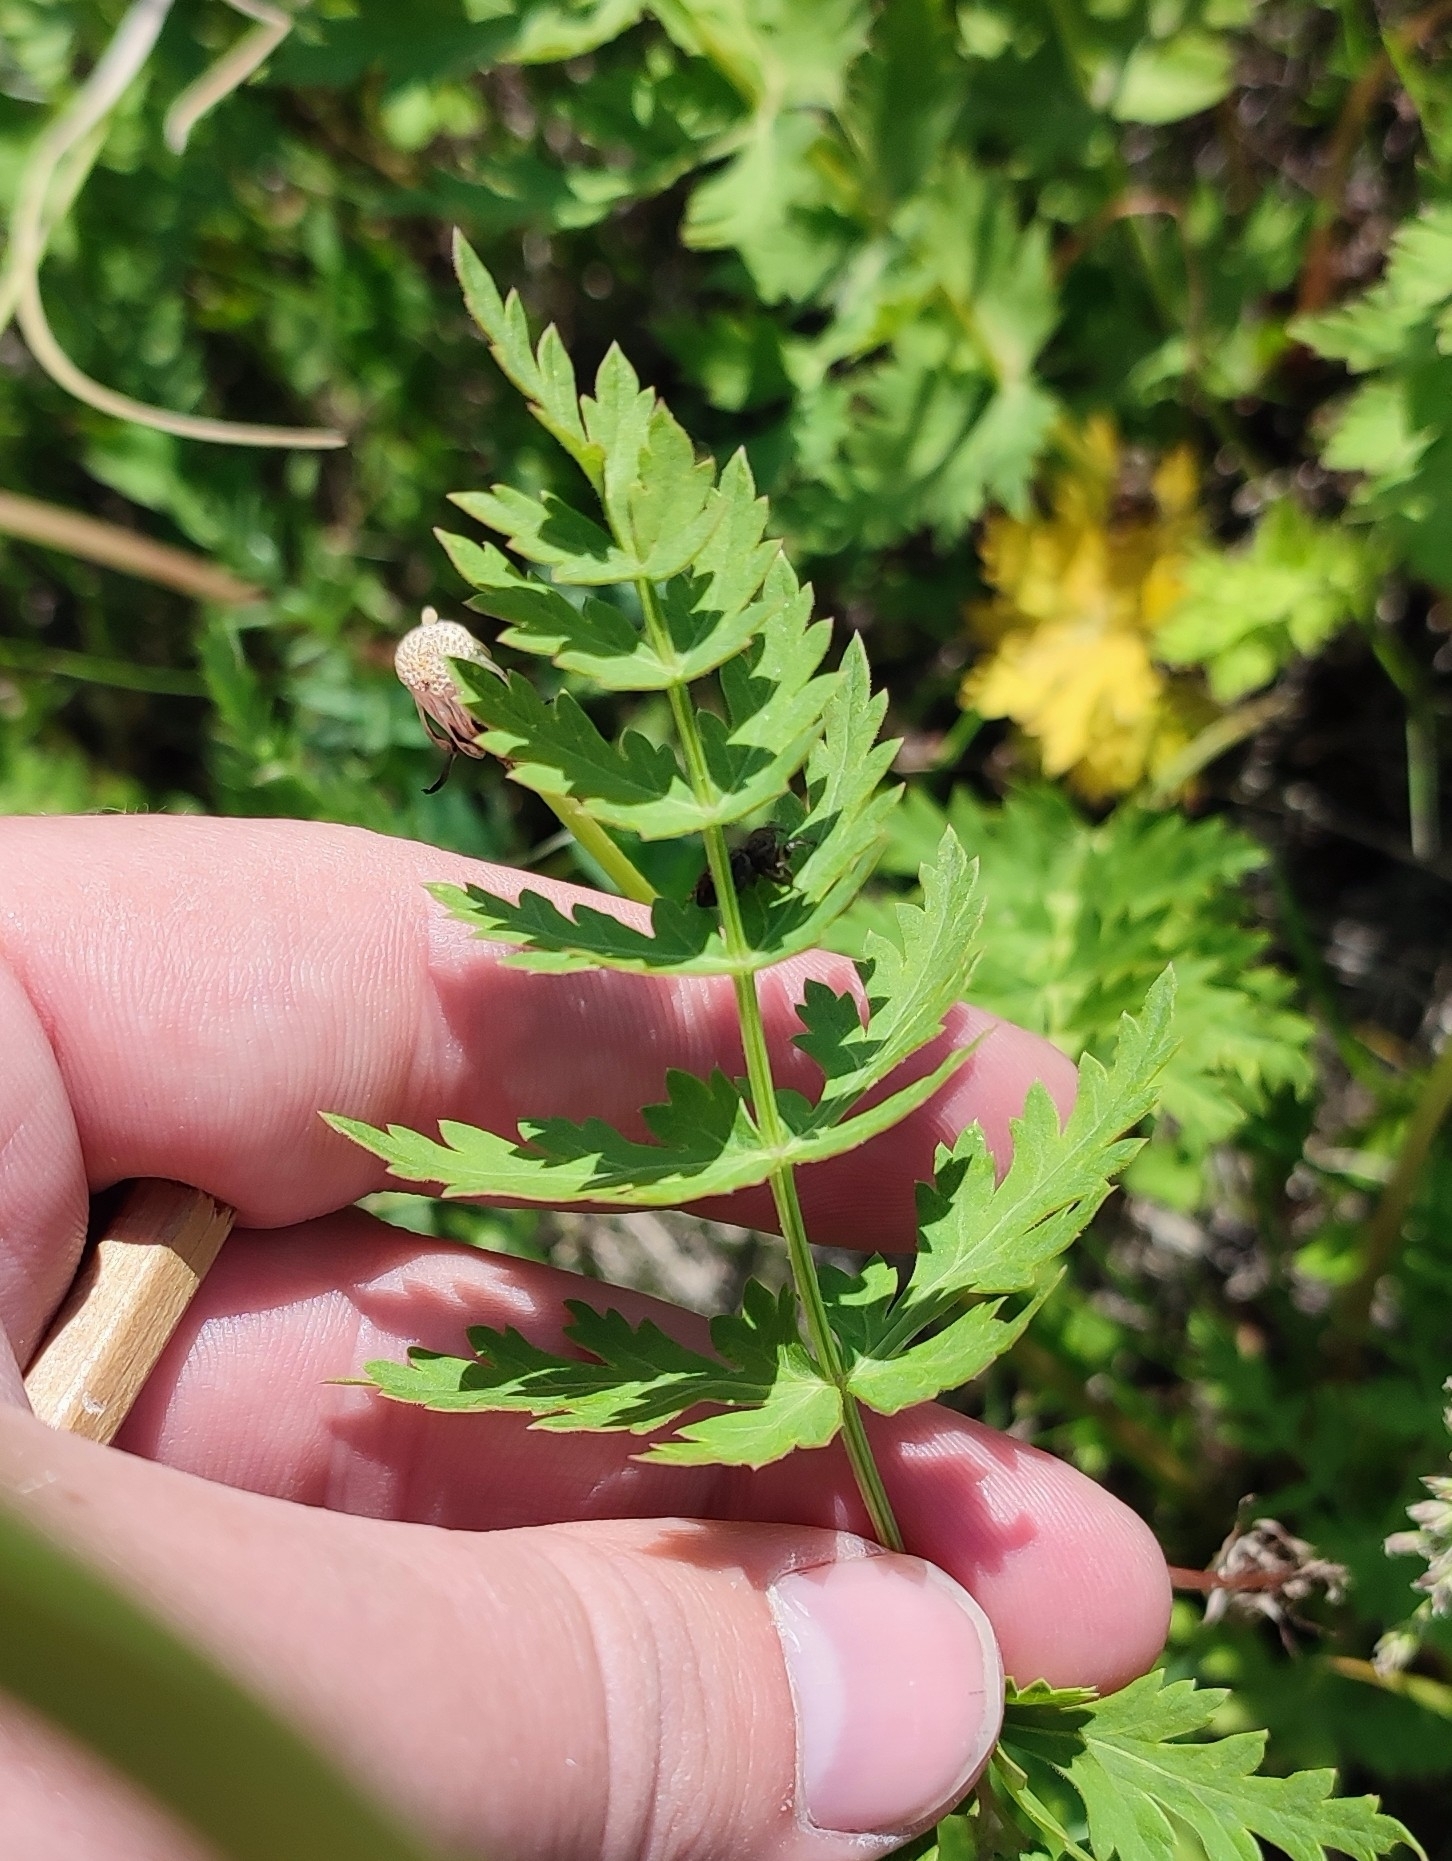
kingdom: Plantae
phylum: Tracheophyta
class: Magnoliopsida
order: Apiales
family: Apiaceae
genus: Seseli
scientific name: Seseli libanotis
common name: Mooncarrot
